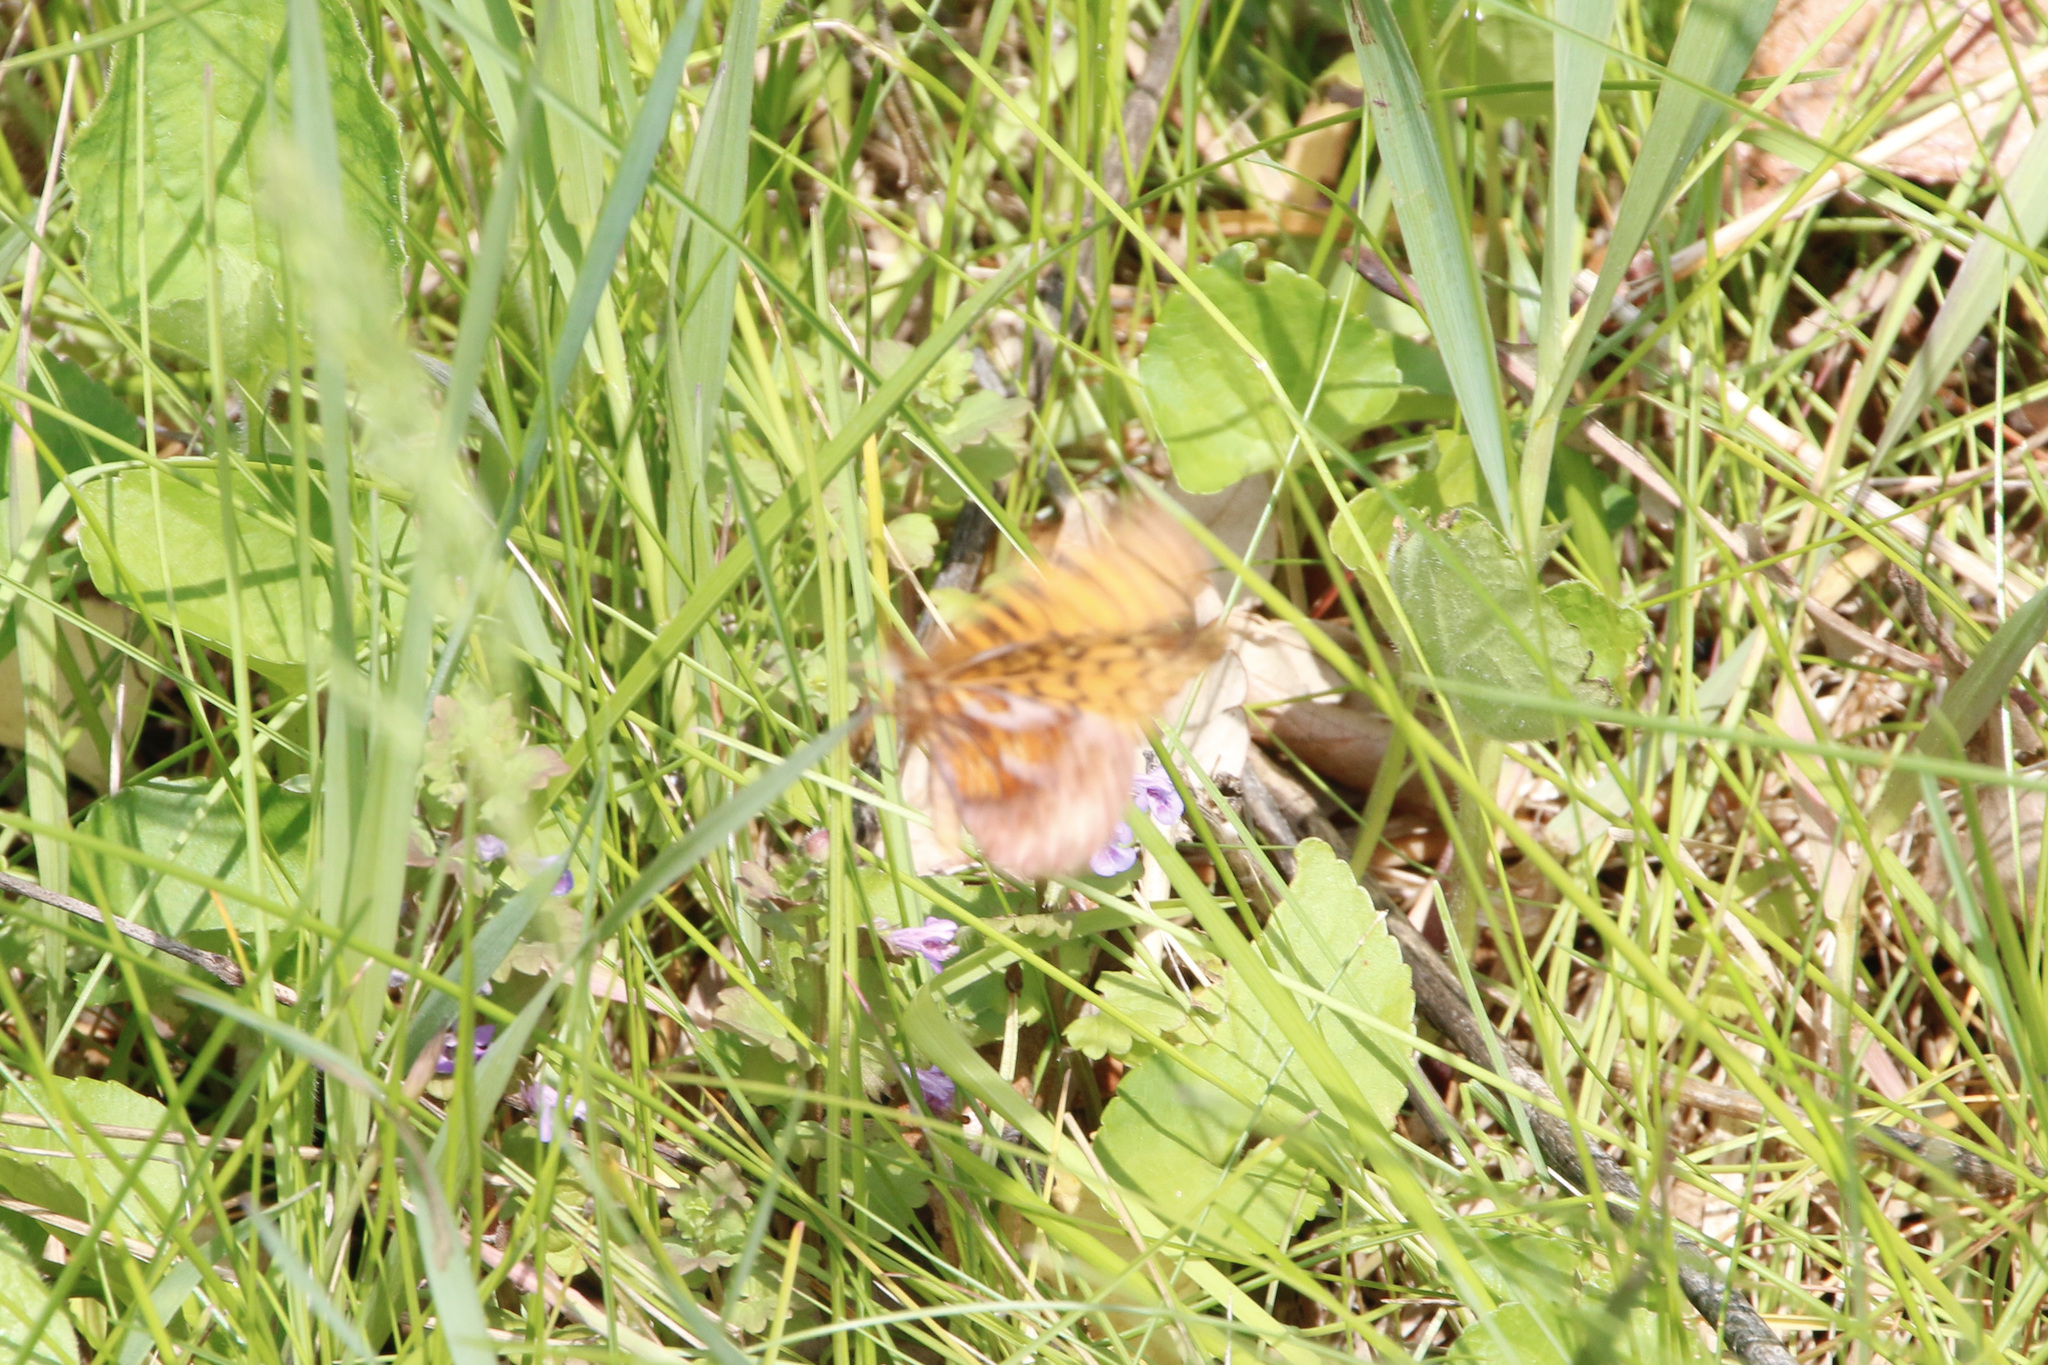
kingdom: Animalia
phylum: Arthropoda
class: Insecta
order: Lepidoptera
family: Nymphalidae
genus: Clossiana
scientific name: Clossiana toddi
